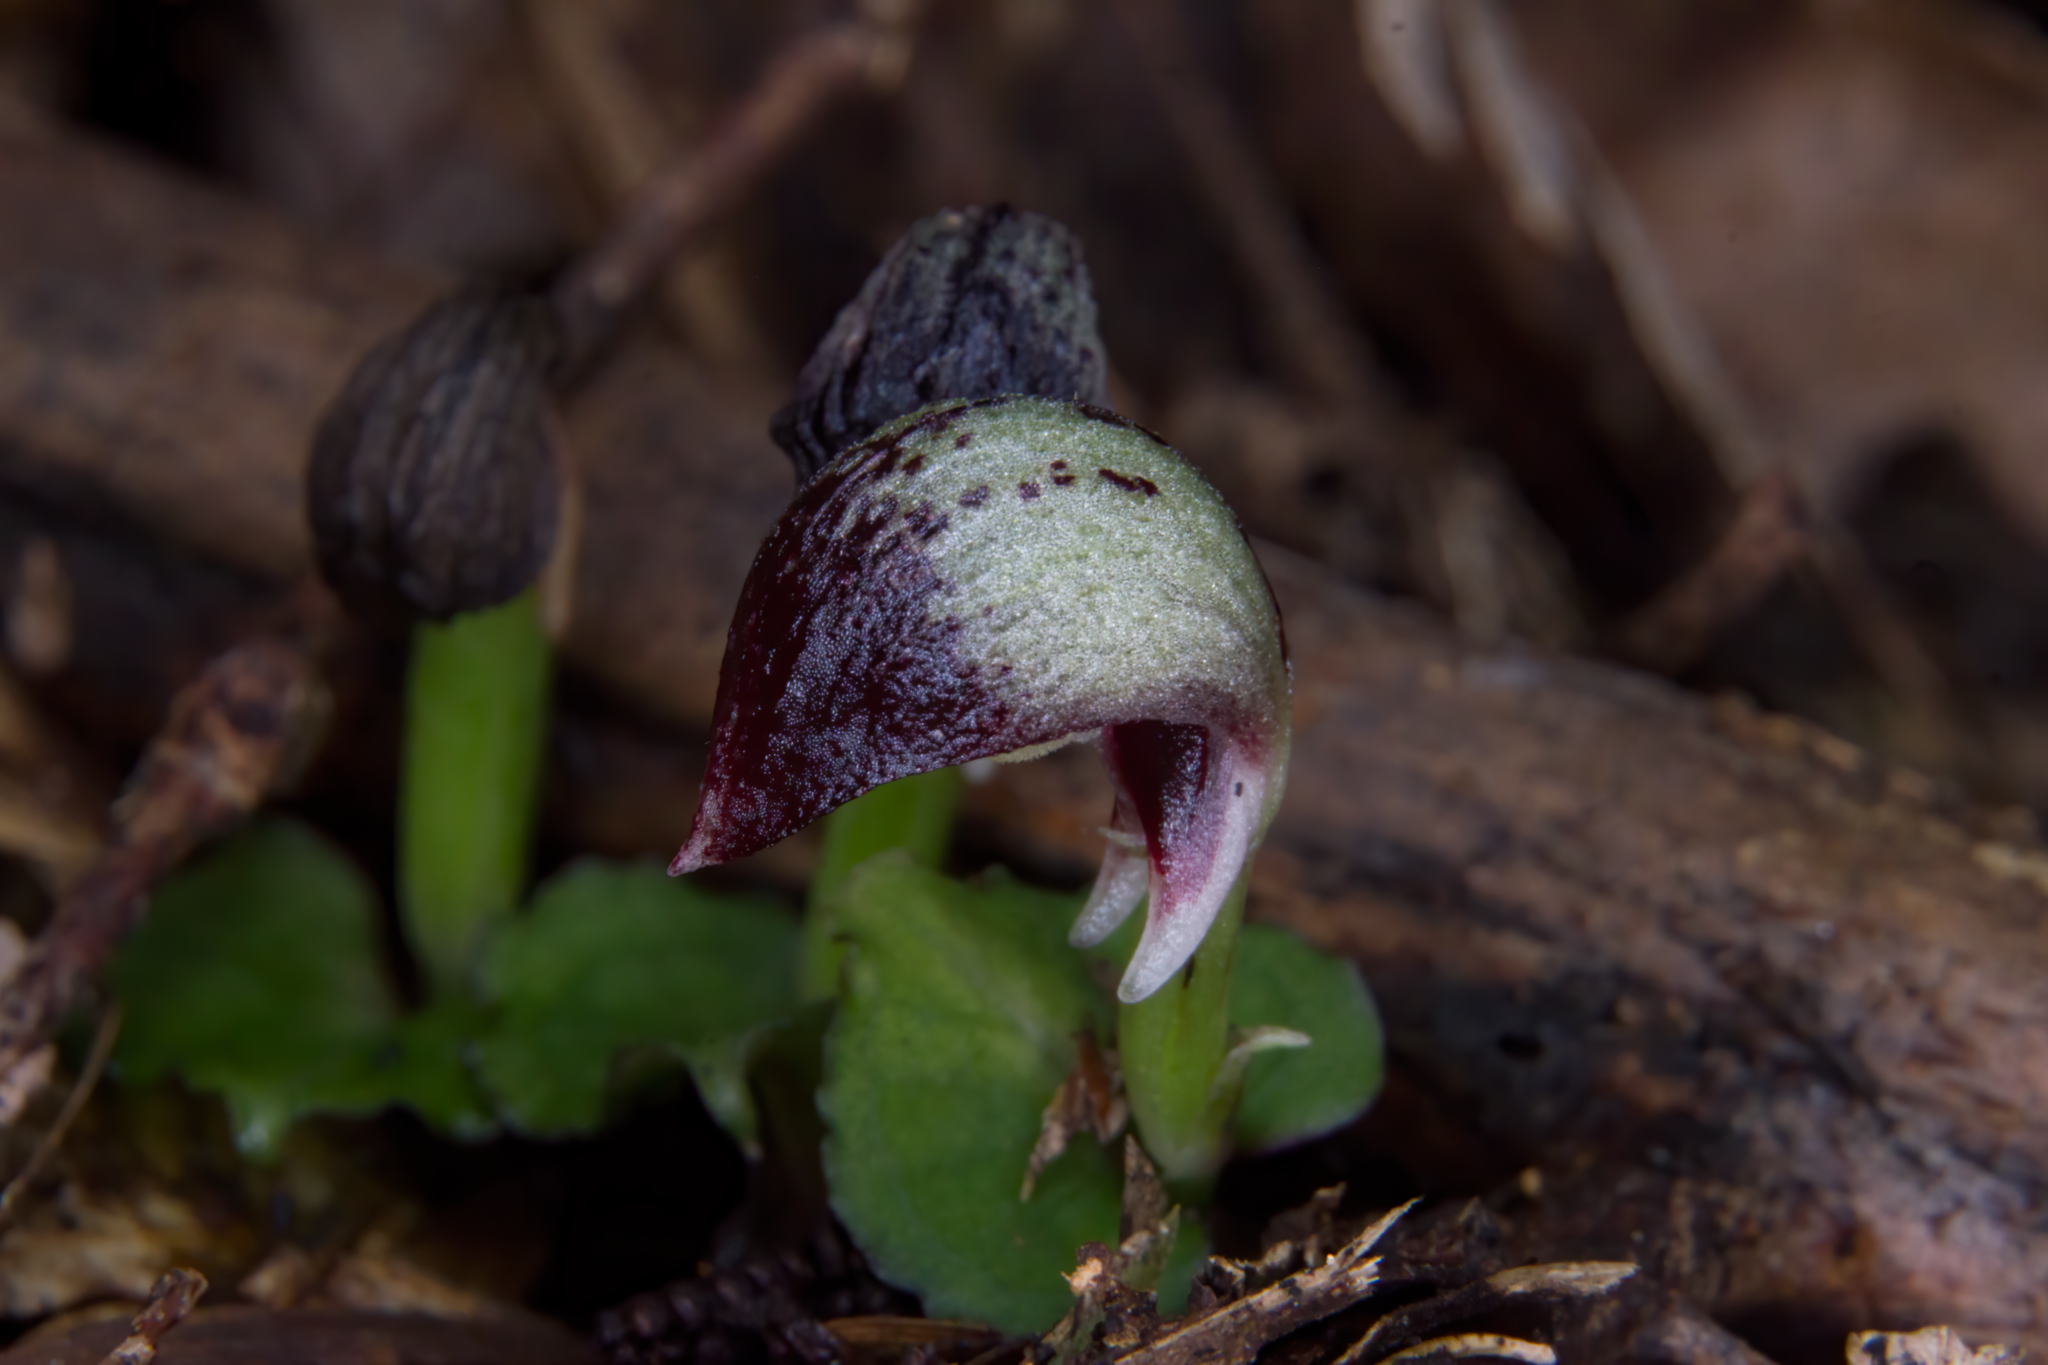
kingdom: Plantae
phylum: Tracheophyta
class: Liliopsida
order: Asparagales
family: Orchidaceae
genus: Corybas
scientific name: Corybas cheesemanii
